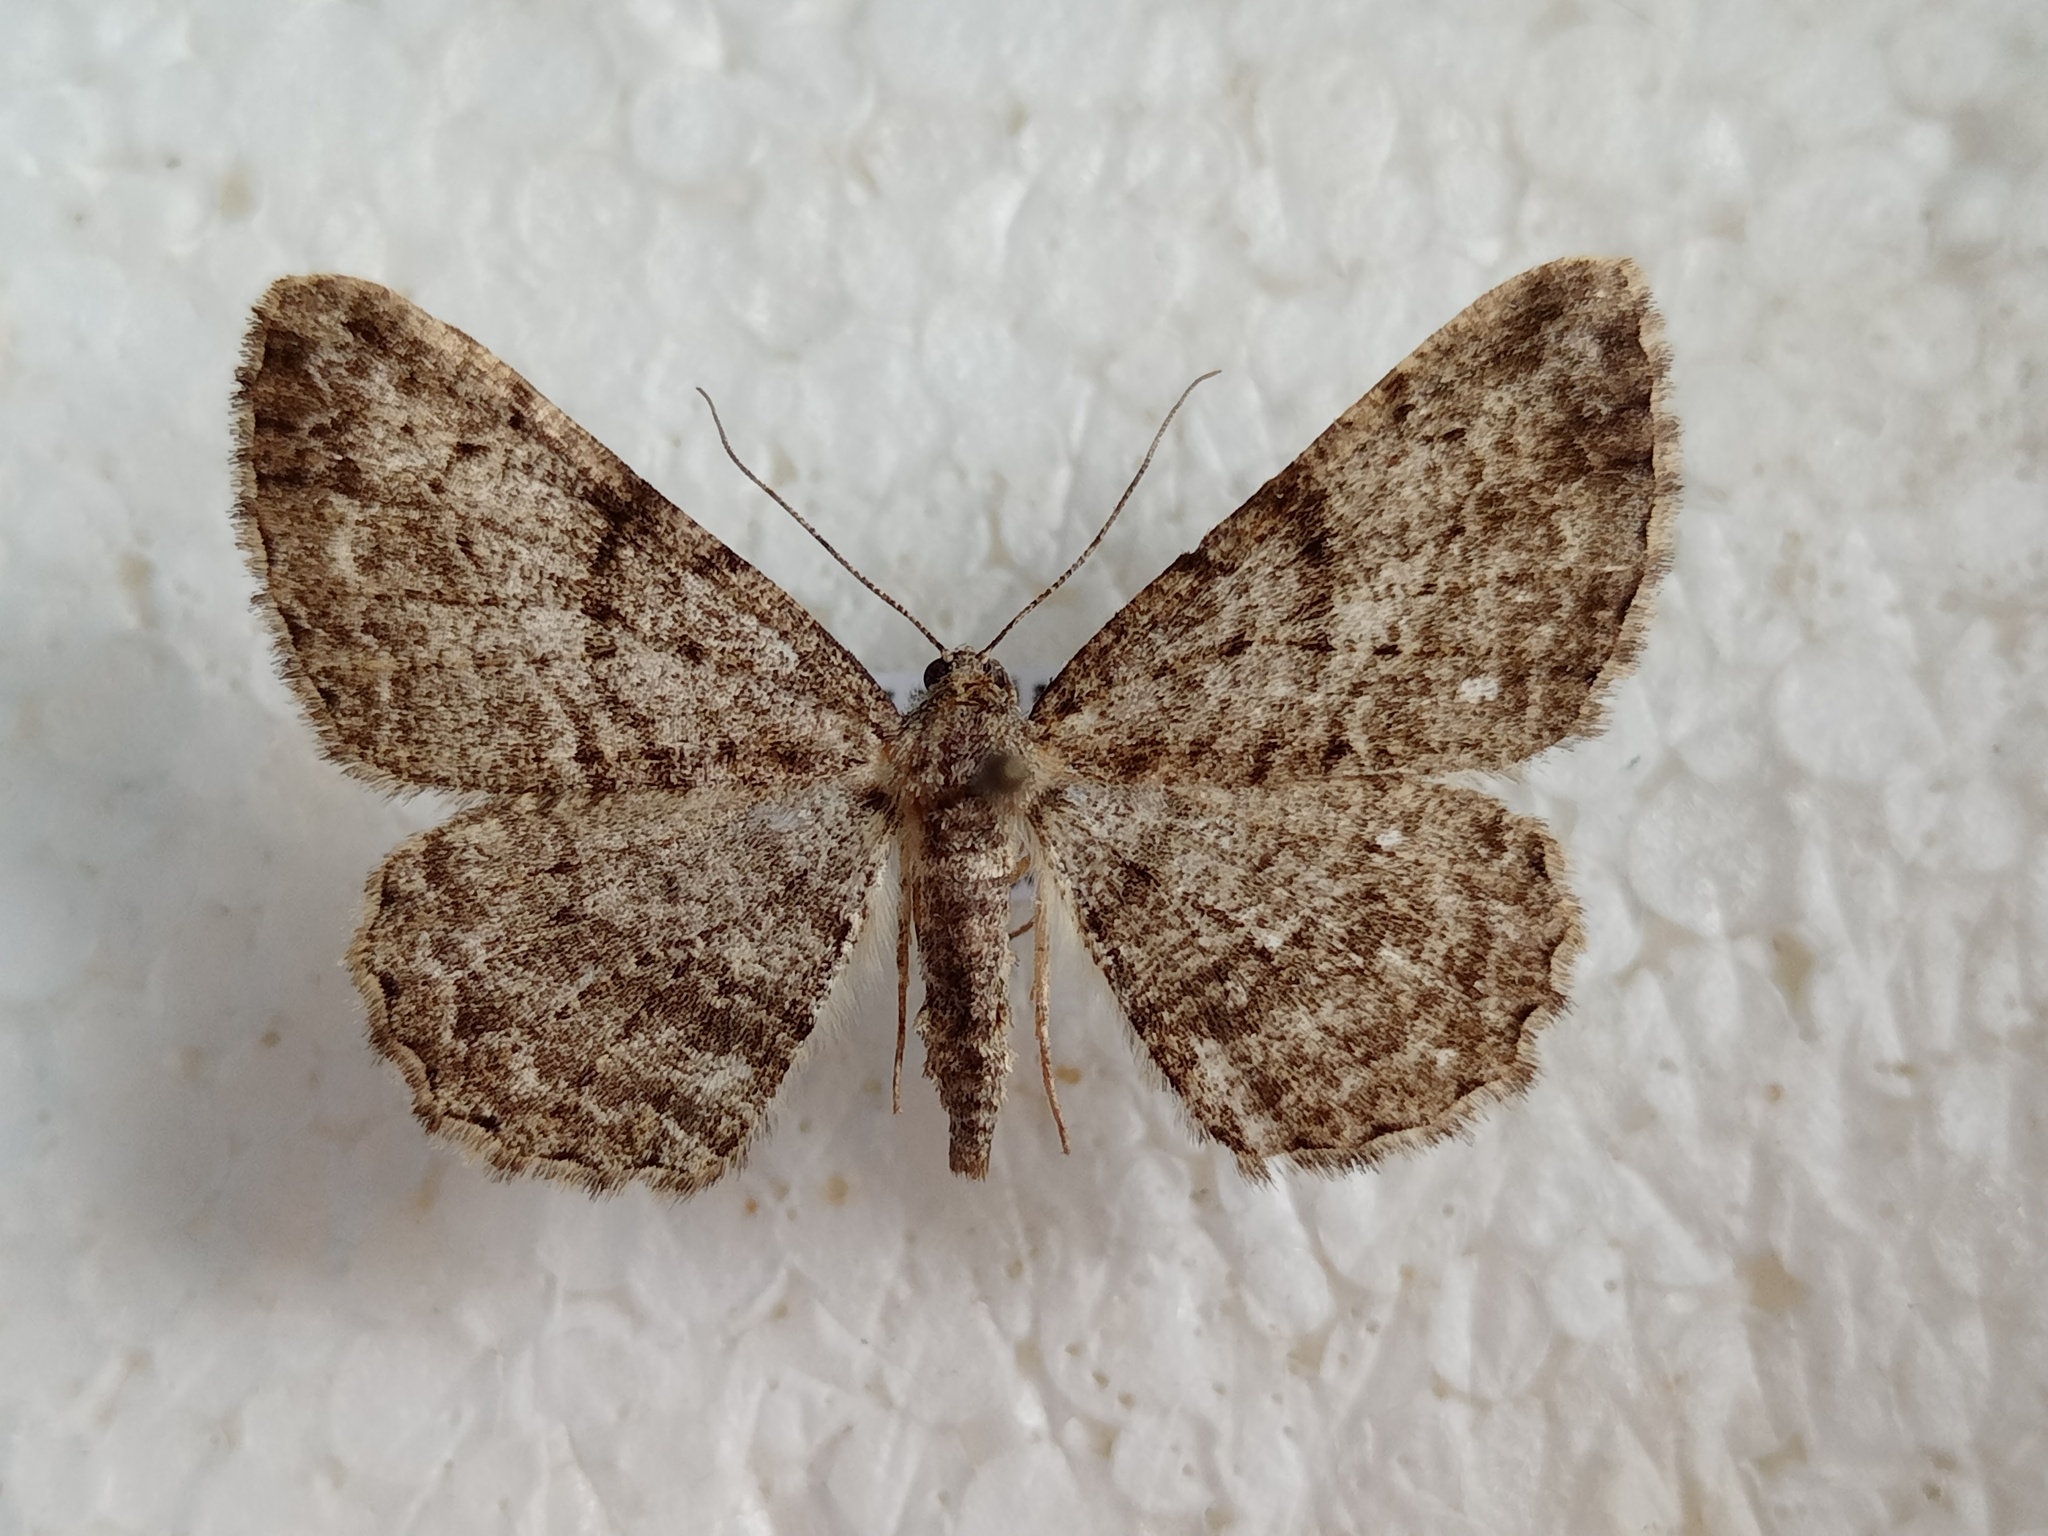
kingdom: Animalia
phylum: Arthropoda
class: Insecta
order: Lepidoptera
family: Geometridae
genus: Peribatodes
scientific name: Peribatodes rhomboidaria
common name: Willow beauty
